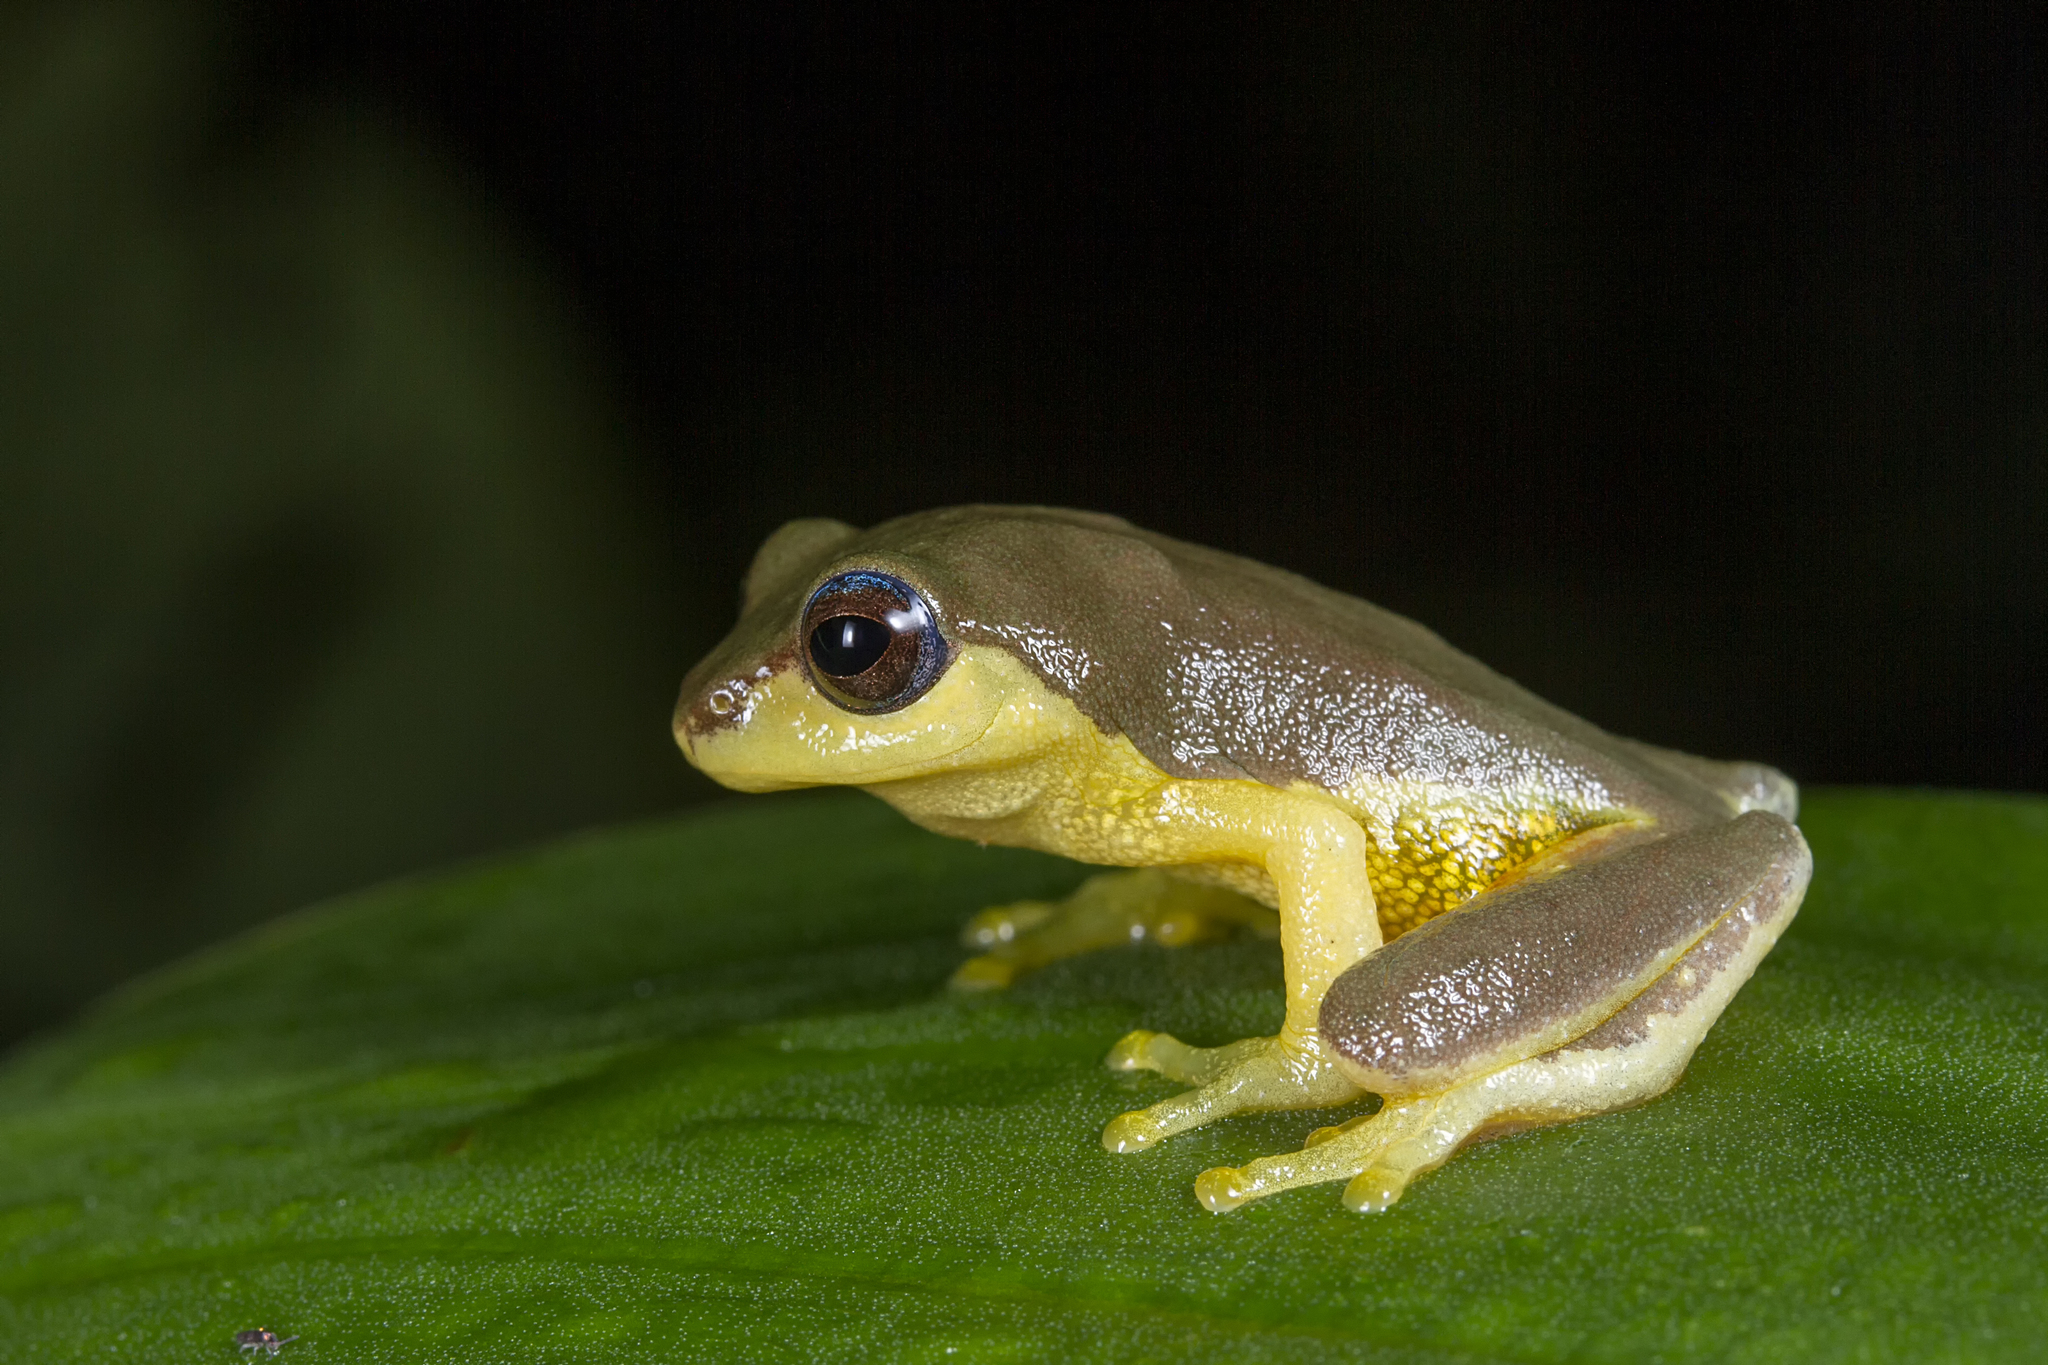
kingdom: Animalia
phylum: Chordata
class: Amphibia
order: Anura
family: Rhacophoridae
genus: Raorchestes
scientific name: Raorchestes glandulosus
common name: Beautiful bush frog
